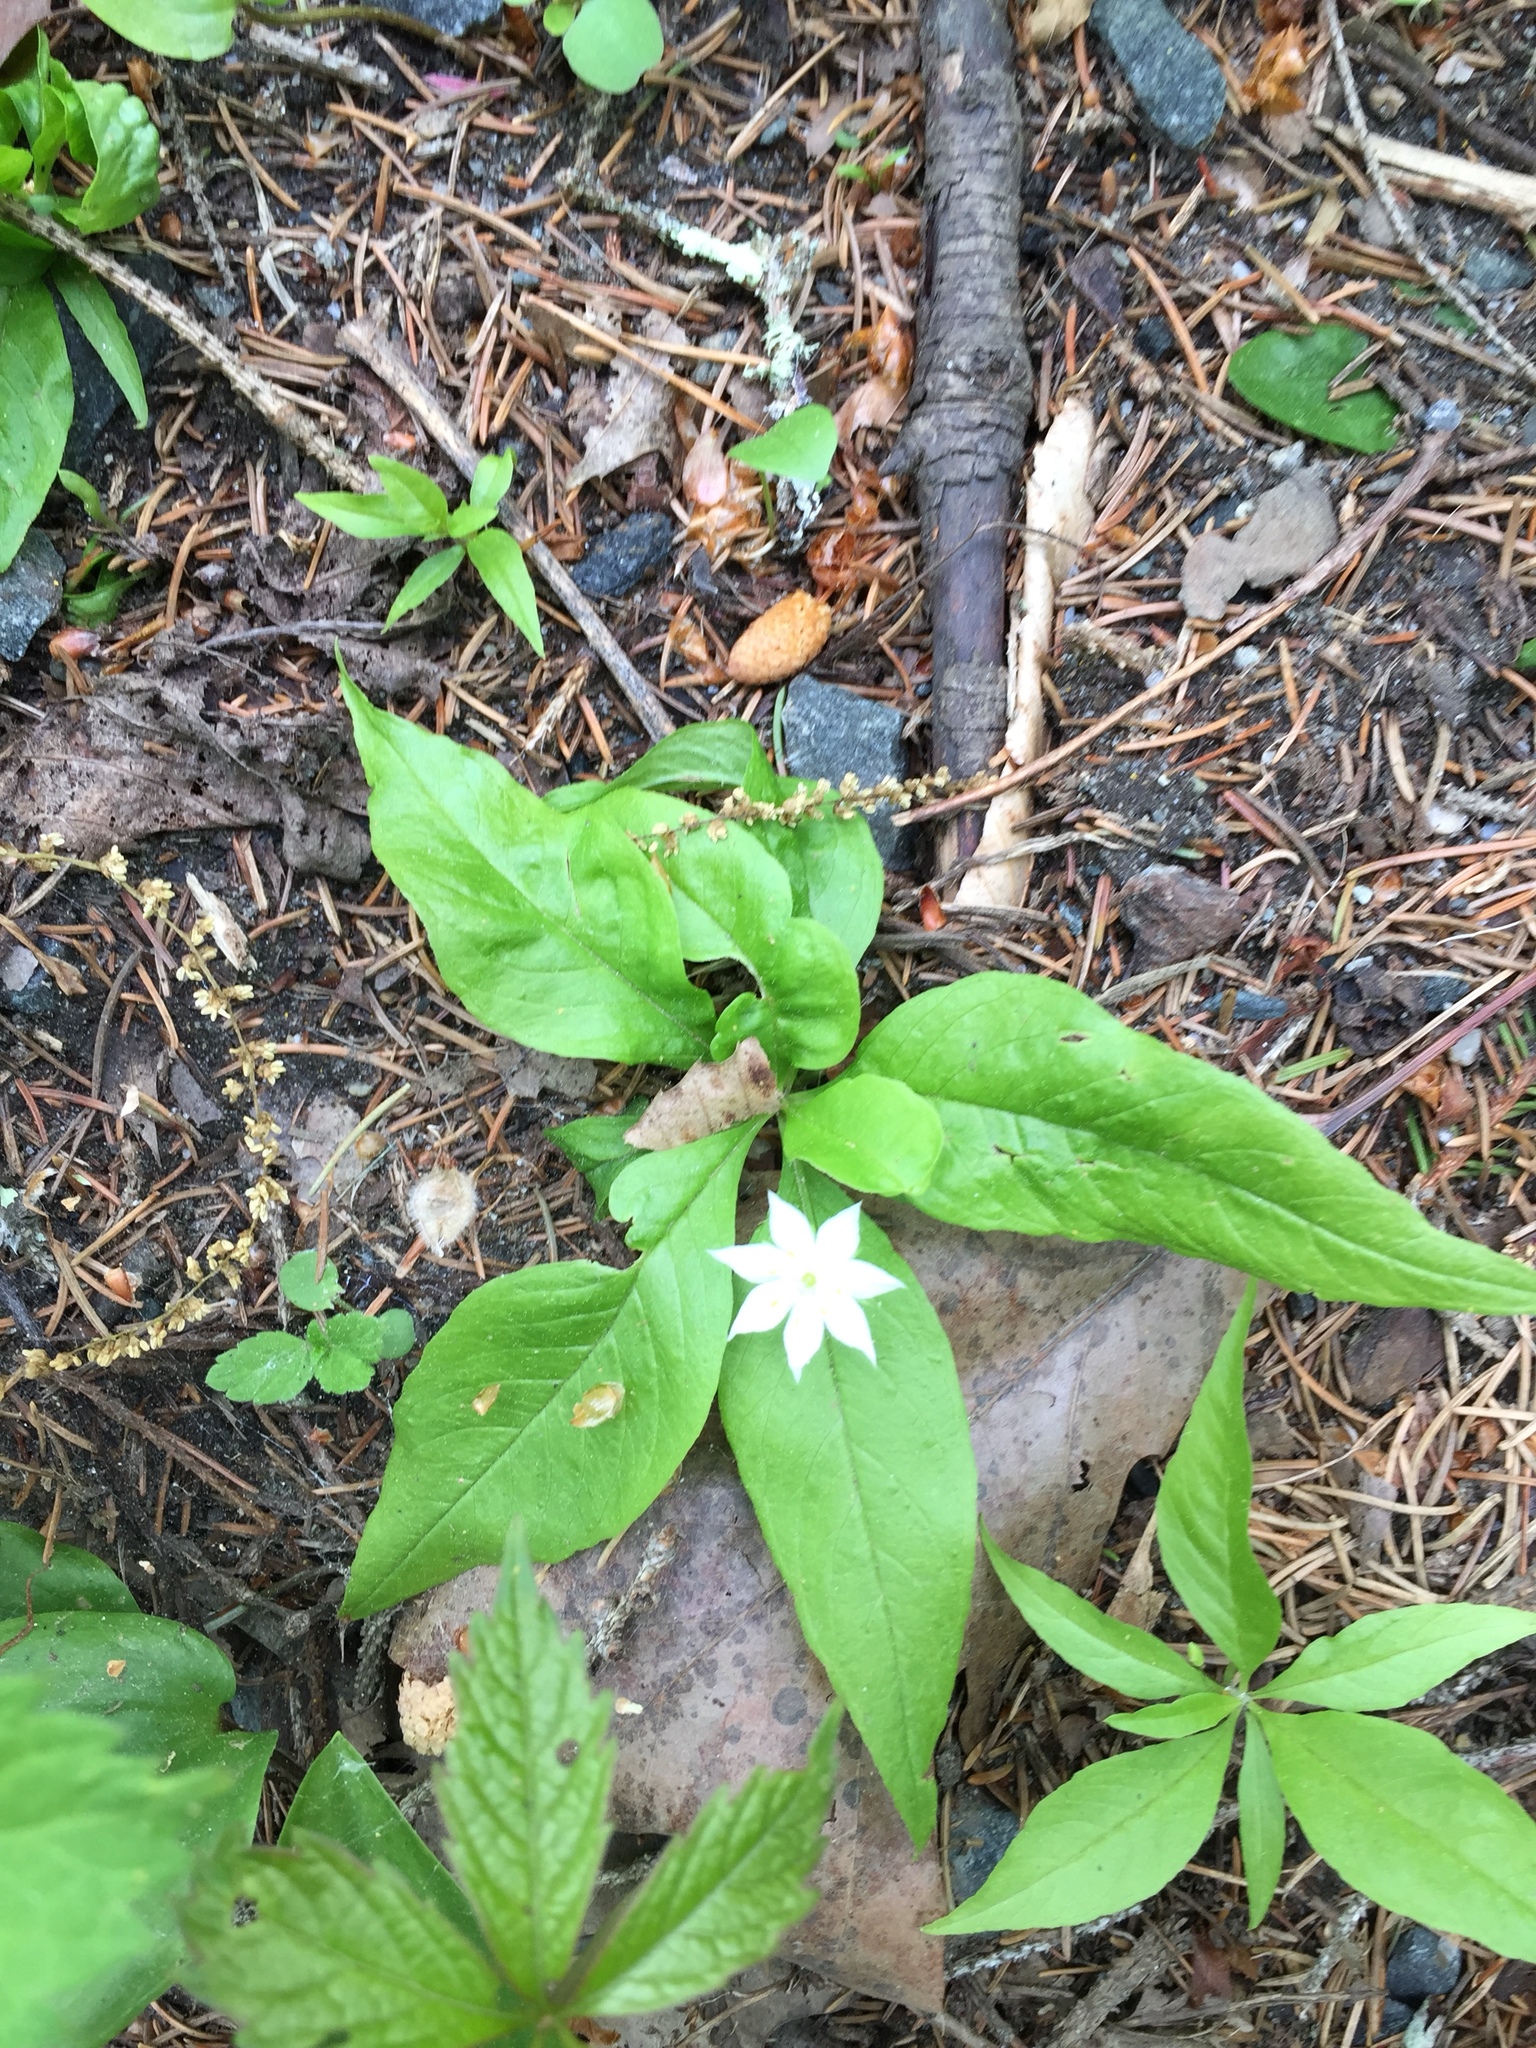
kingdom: Plantae
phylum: Tracheophyta
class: Magnoliopsida
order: Ericales
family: Primulaceae
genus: Lysimachia
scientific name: Lysimachia borealis
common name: American starflower
